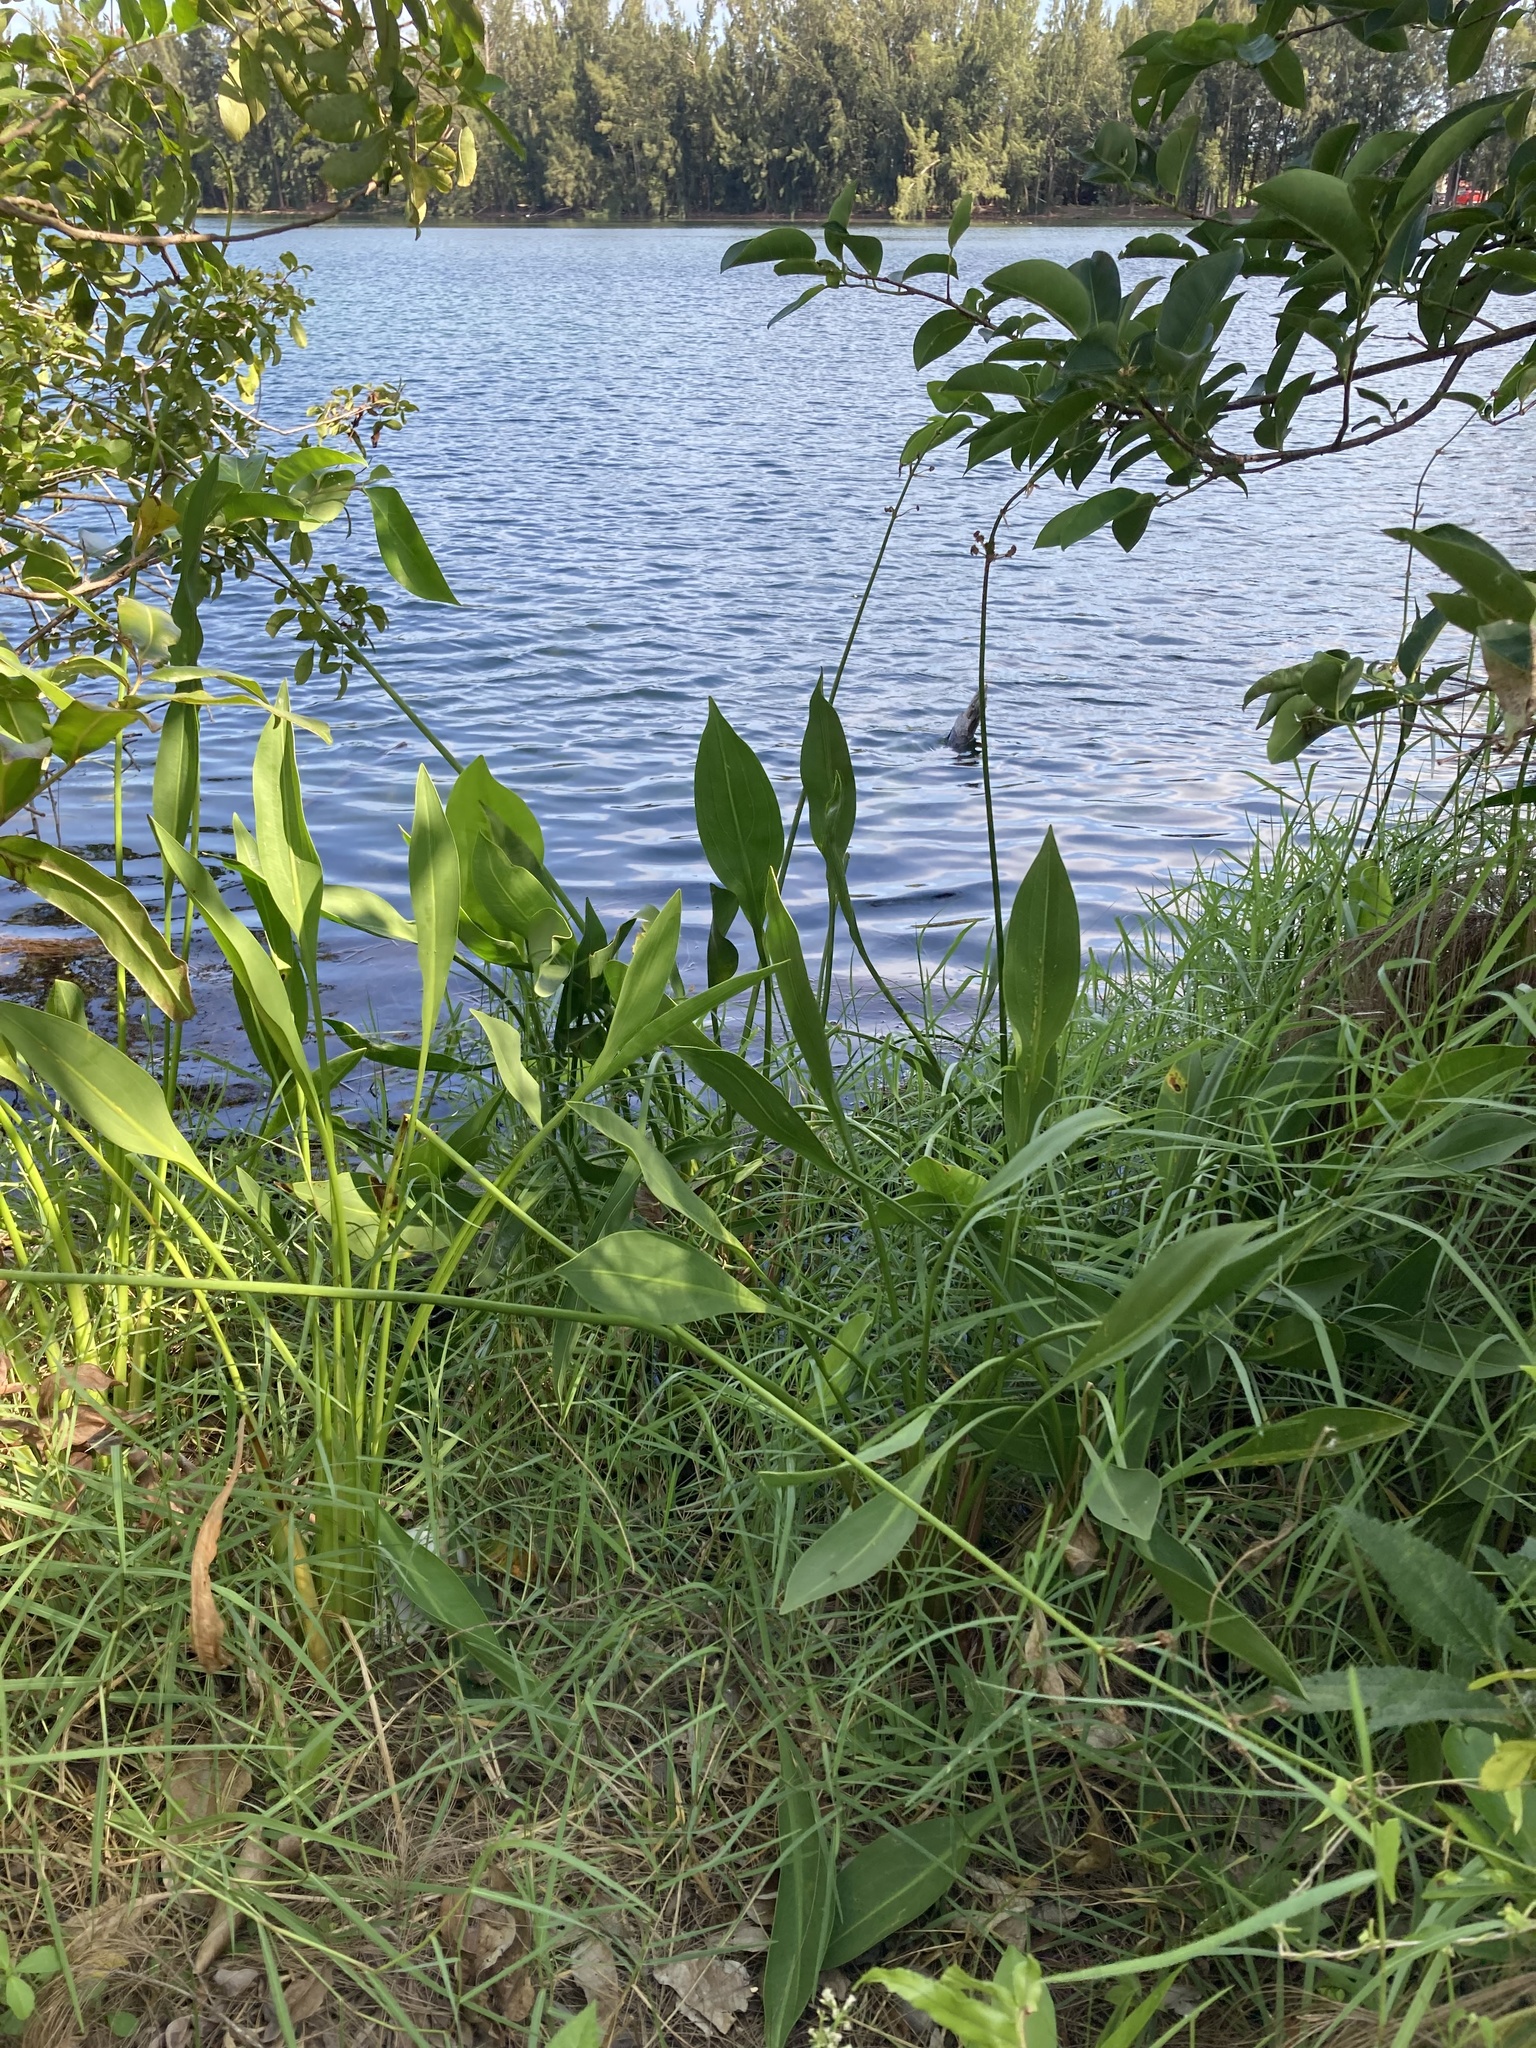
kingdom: Plantae
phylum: Tracheophyta
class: Liliopsida
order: Alismatales
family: Alismataceae
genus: Sagittaria
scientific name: Sagittaria lancifolia
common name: Lance-leaf arrowhead
